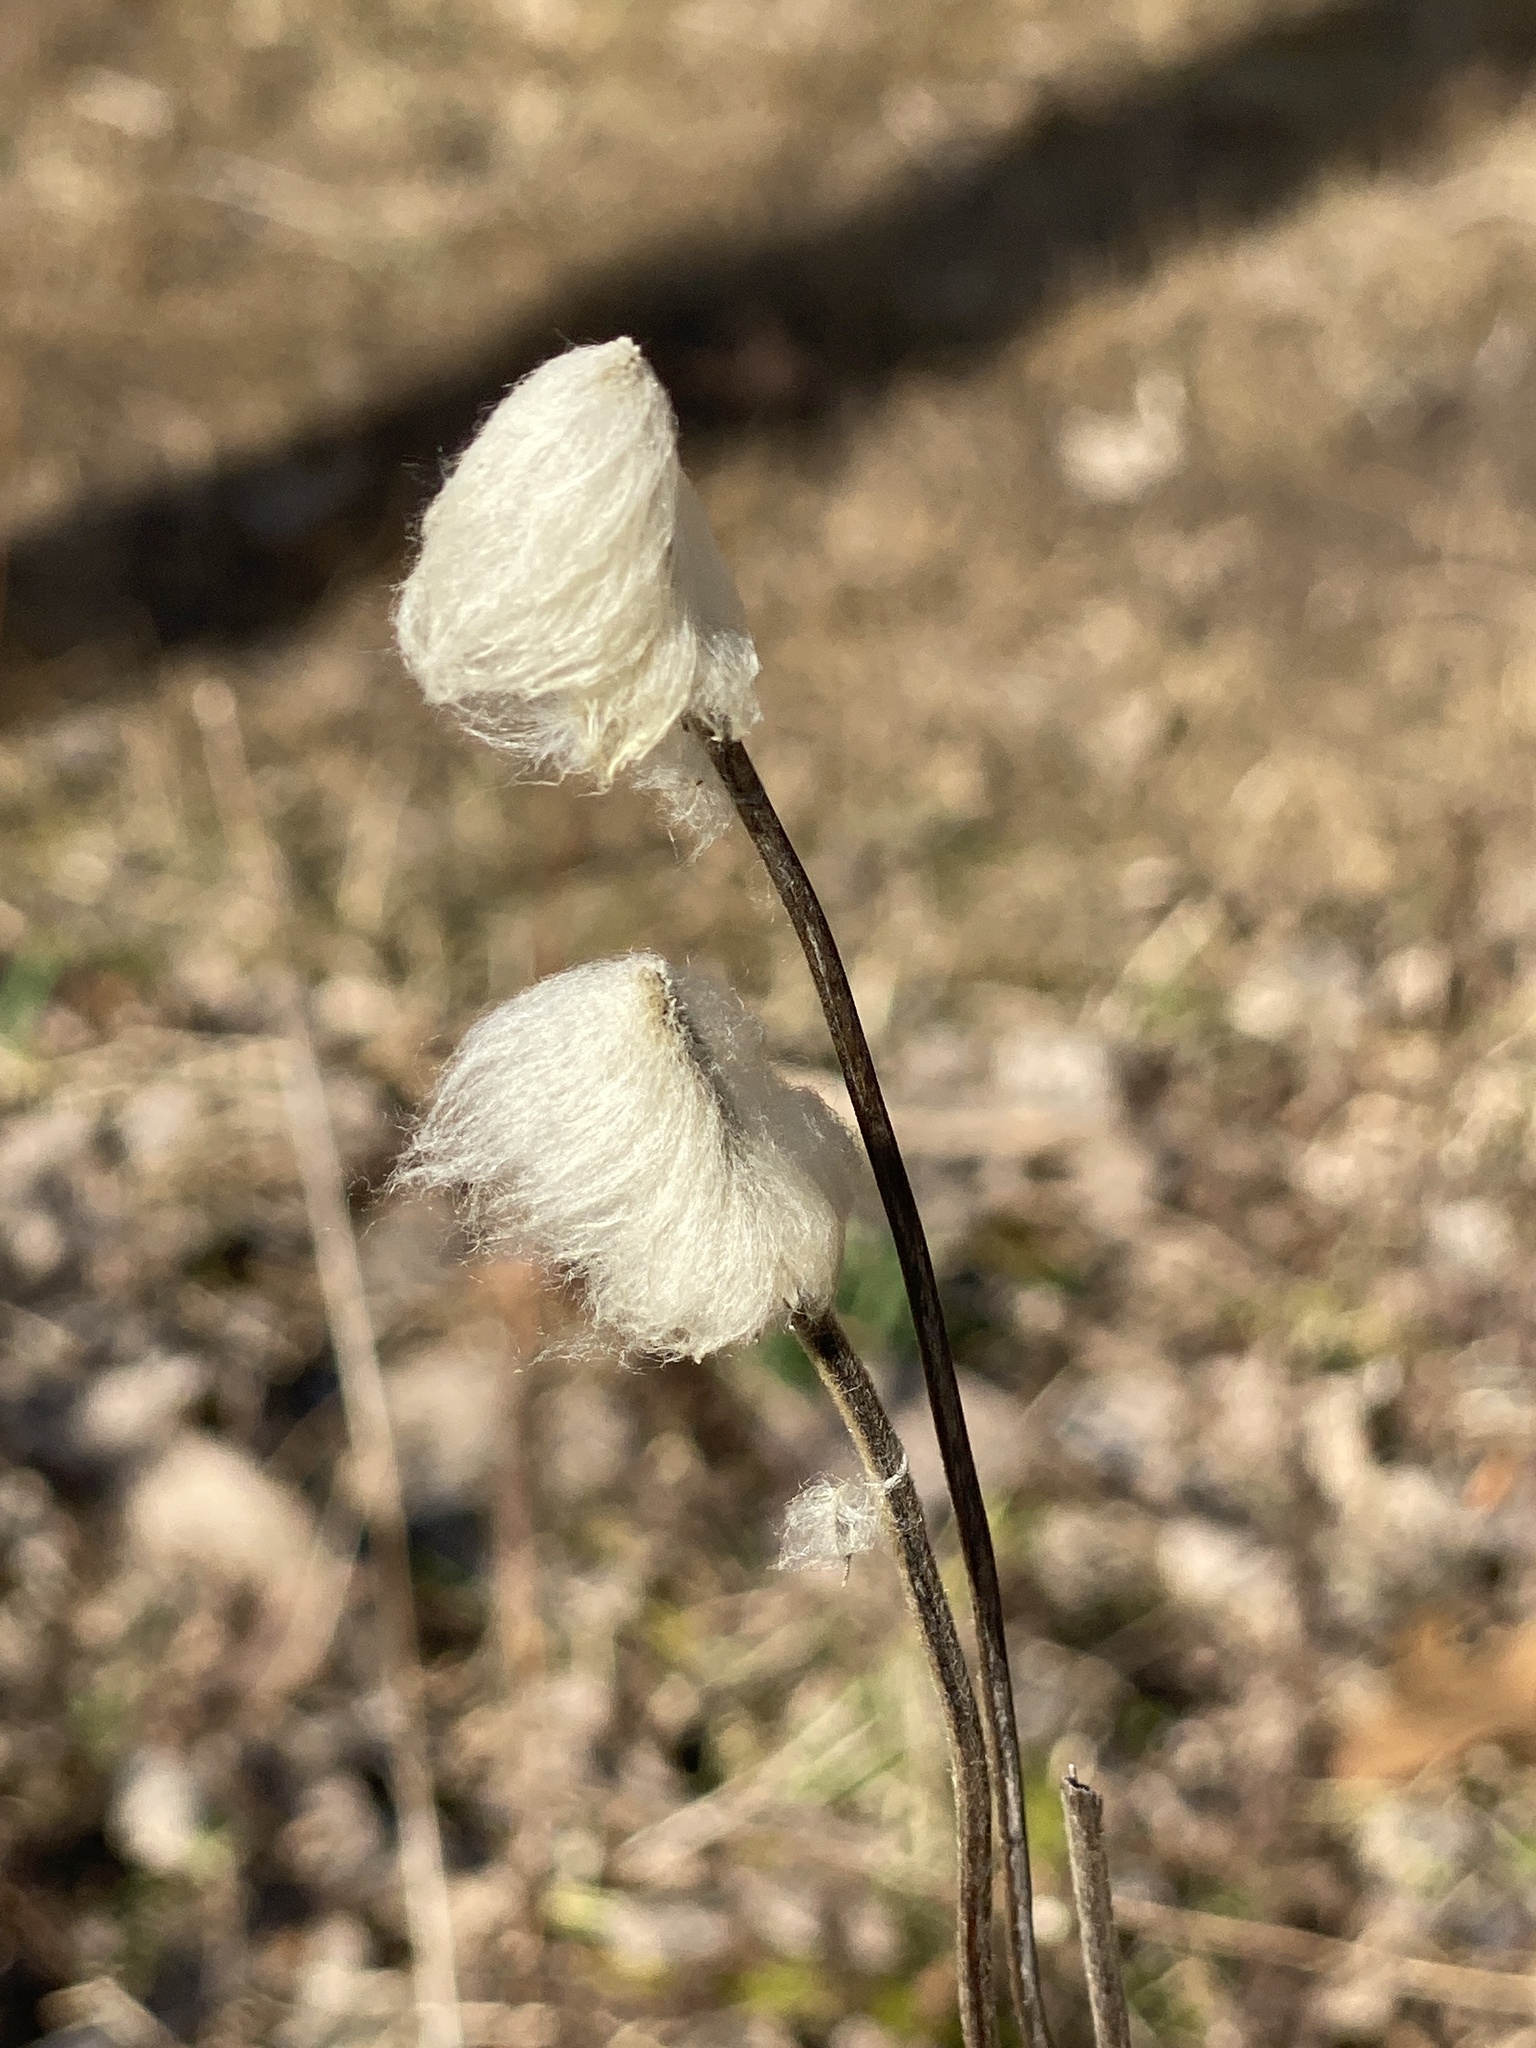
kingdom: Plantae
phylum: Tracheophyta
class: Magnoliopsida
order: Ranunculales
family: Ranunculaceae
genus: Anemone
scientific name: Anemone virginiana
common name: Tall anemone
